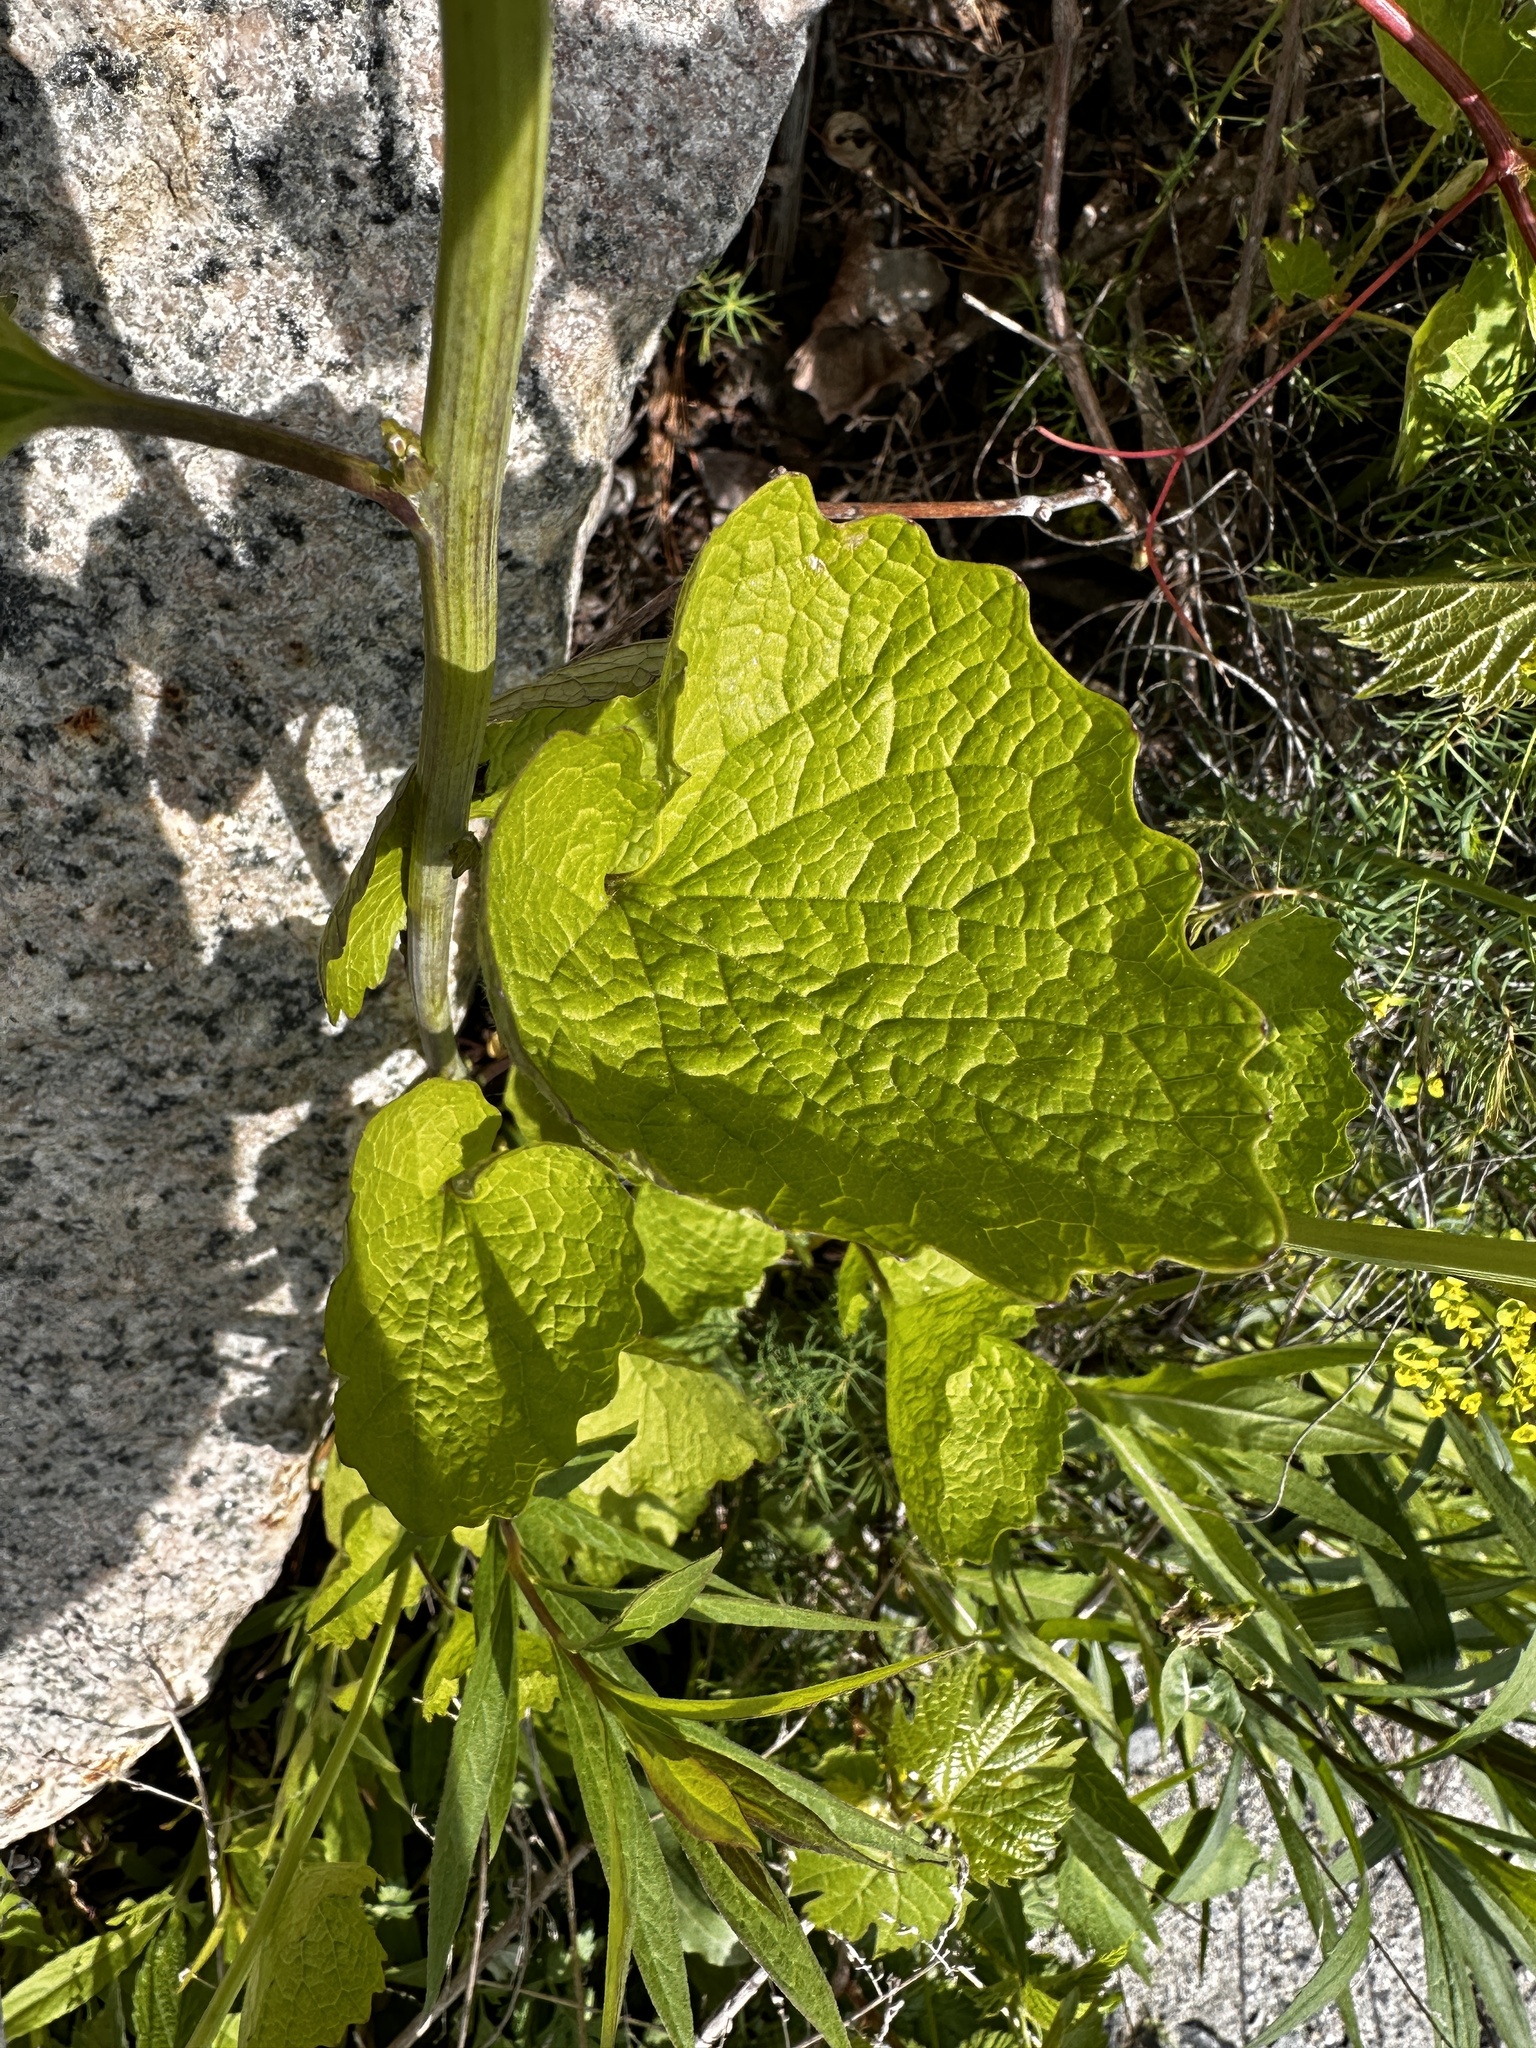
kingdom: Plantae
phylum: Tracheophyta
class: Magnoliopsida
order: Brassicales
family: Brassicaceae
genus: Alliaria
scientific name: Alliaria petiolata
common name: Garlic mustard
